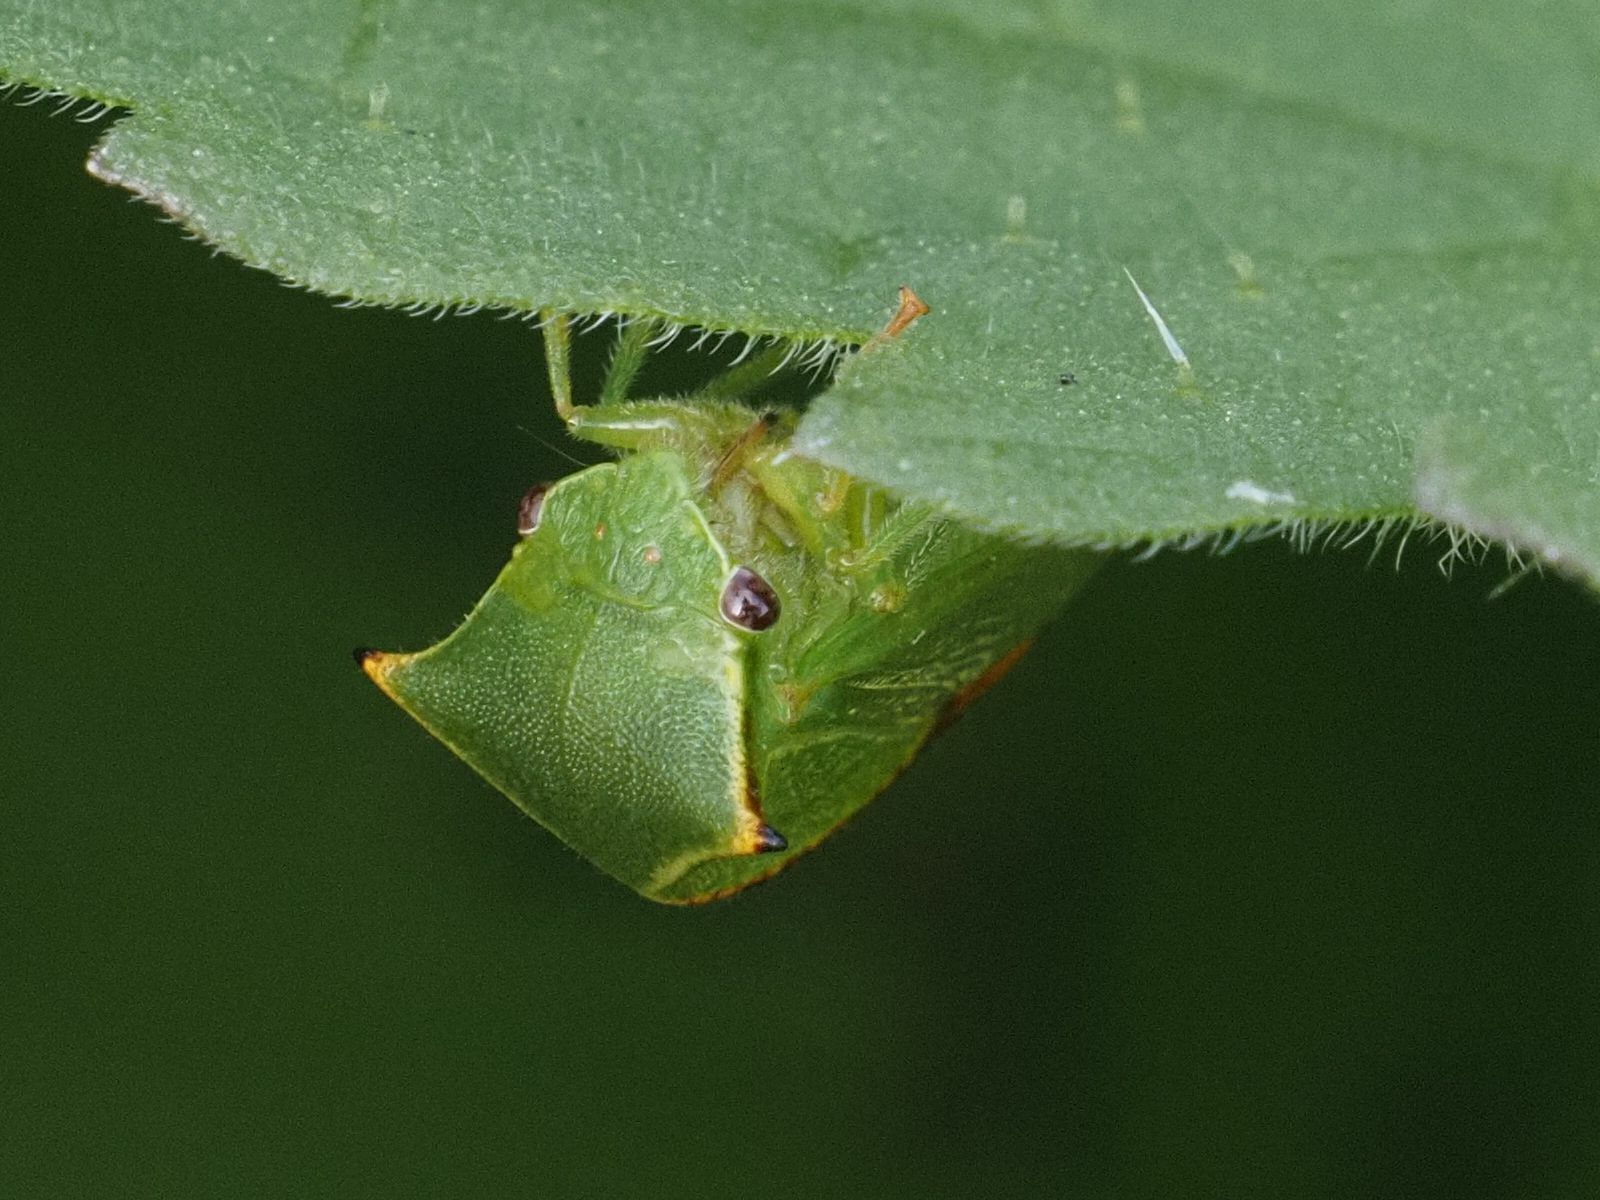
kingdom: Animalia
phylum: Arthropoda
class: Insecta
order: Hemiptera
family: Membracidae
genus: Stictocephala
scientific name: Stictocephala bisonia
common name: American buffalo treehopper
